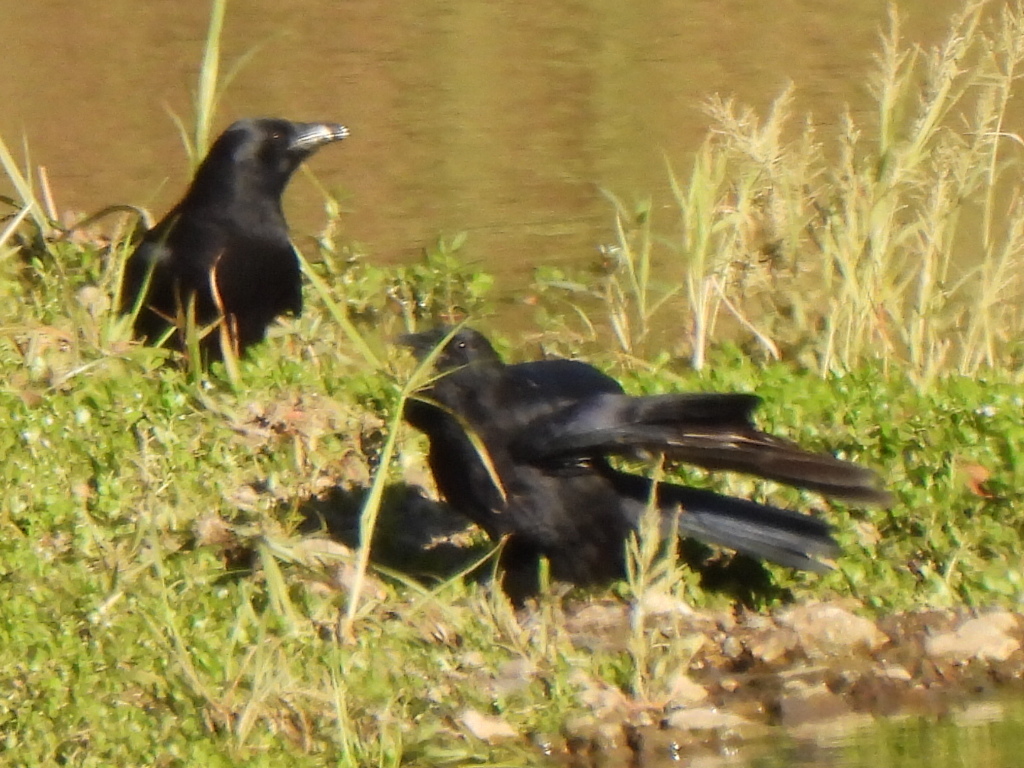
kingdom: Animalia
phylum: Chordata
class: Aves
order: Passeriformes
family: Corvidae
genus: Corvus
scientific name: Corvus brachyrhynchos
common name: American crow
